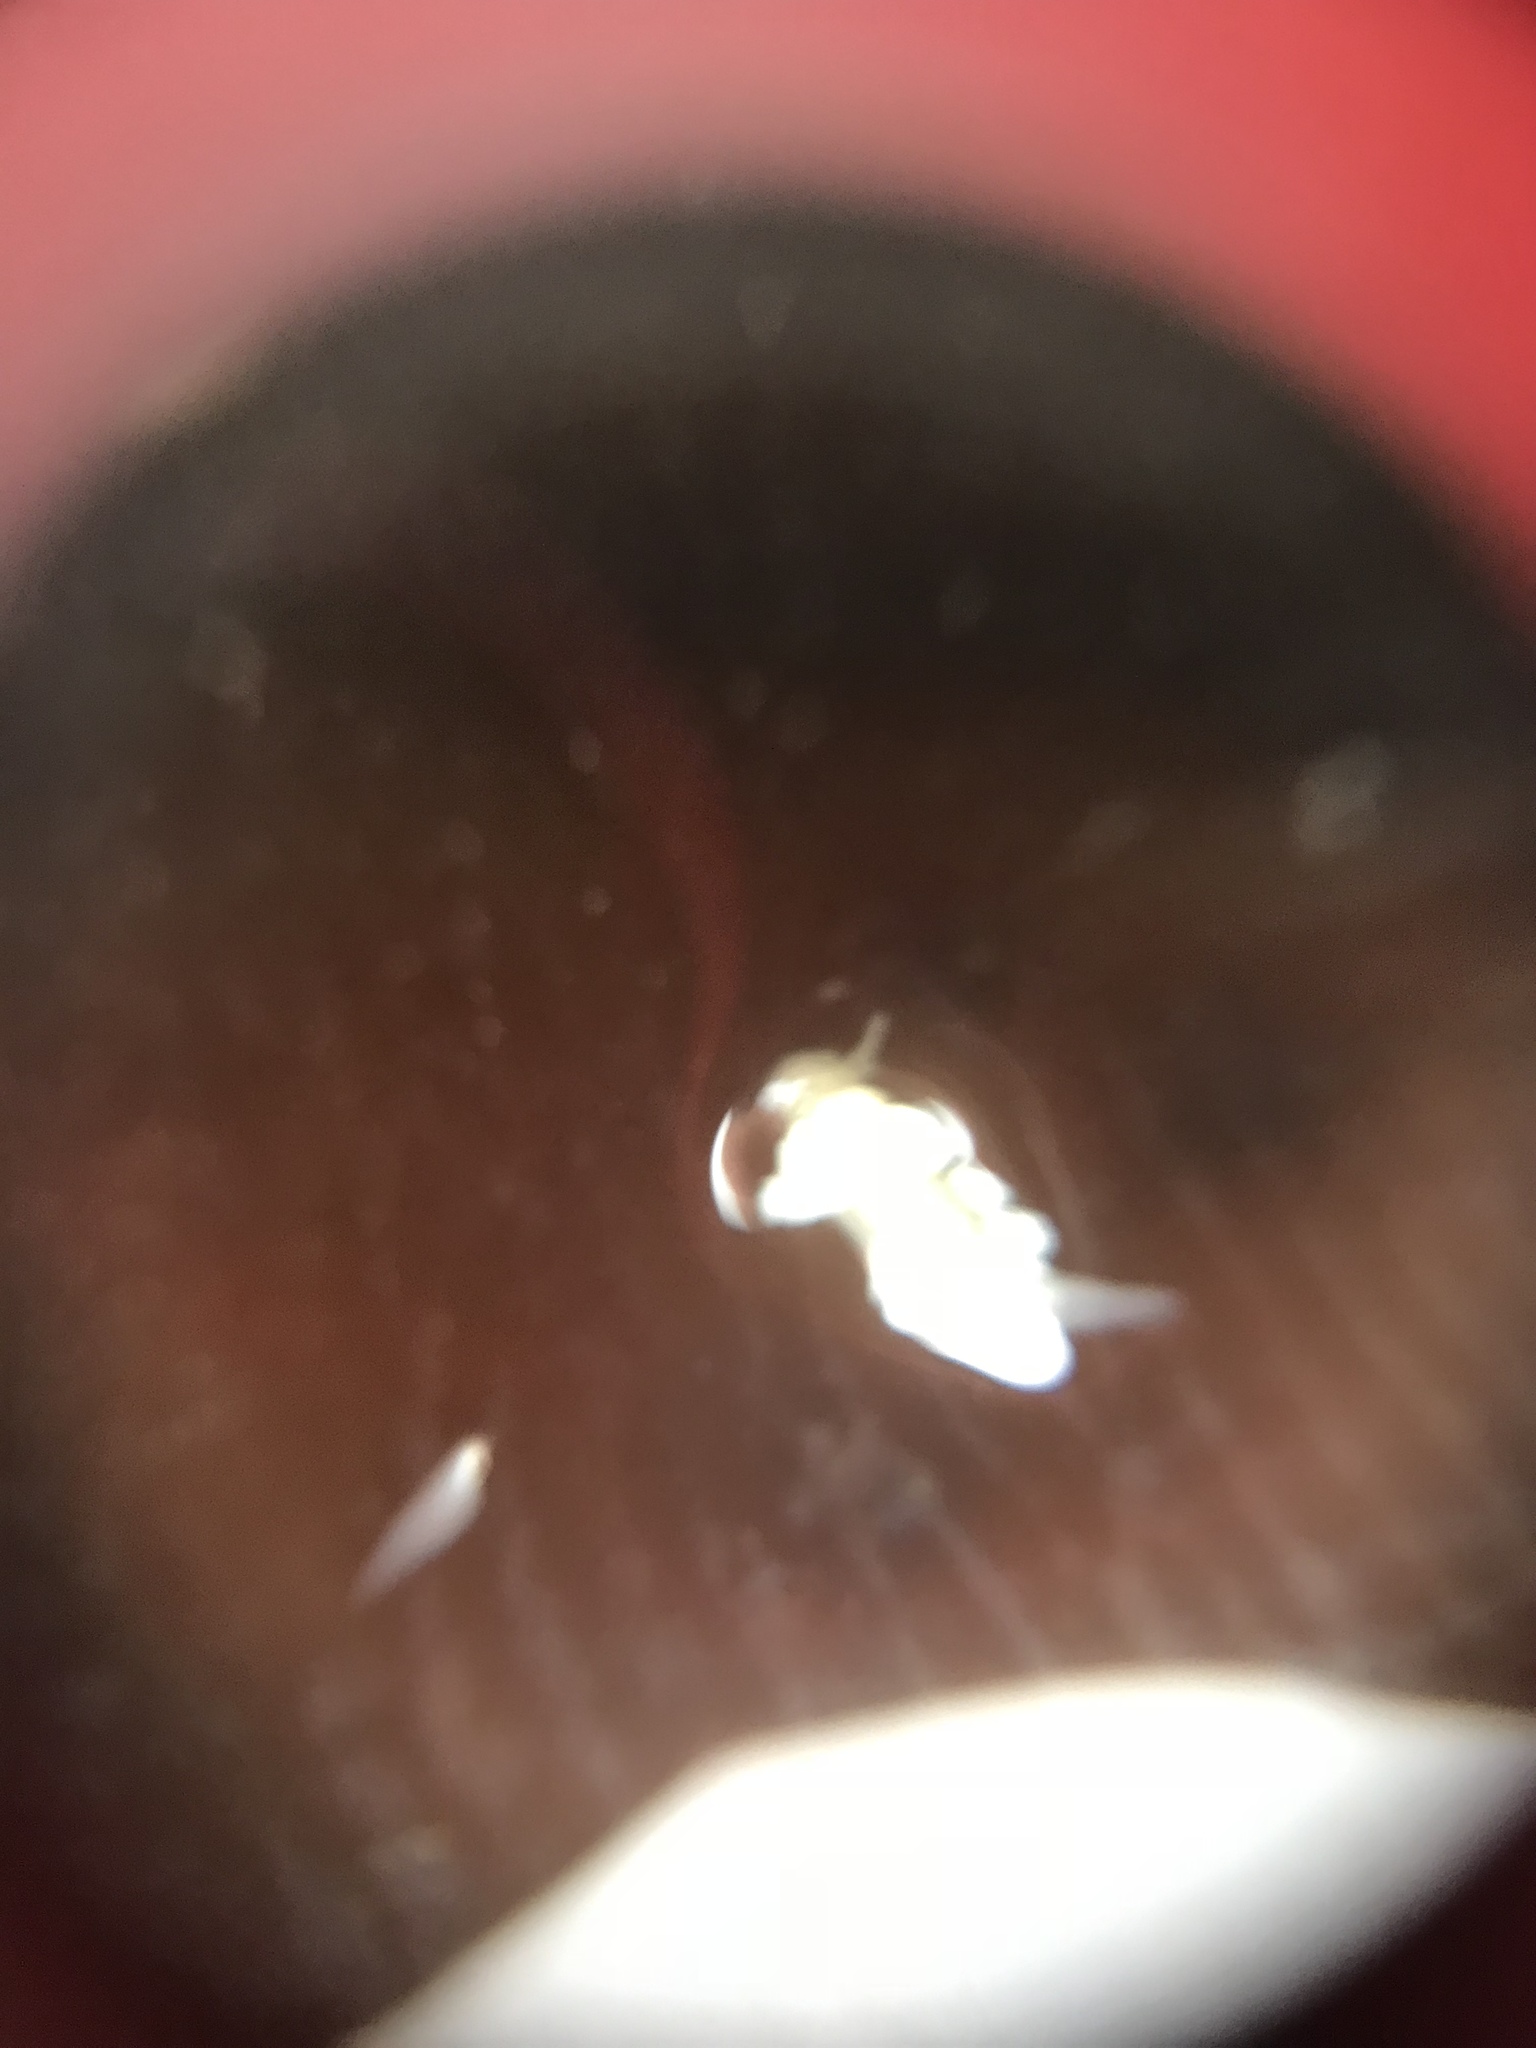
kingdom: Animalia
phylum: Mollusca
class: Gastropoda
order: Nudibranchia
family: Dotidae
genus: Doto
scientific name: Doto amyra
